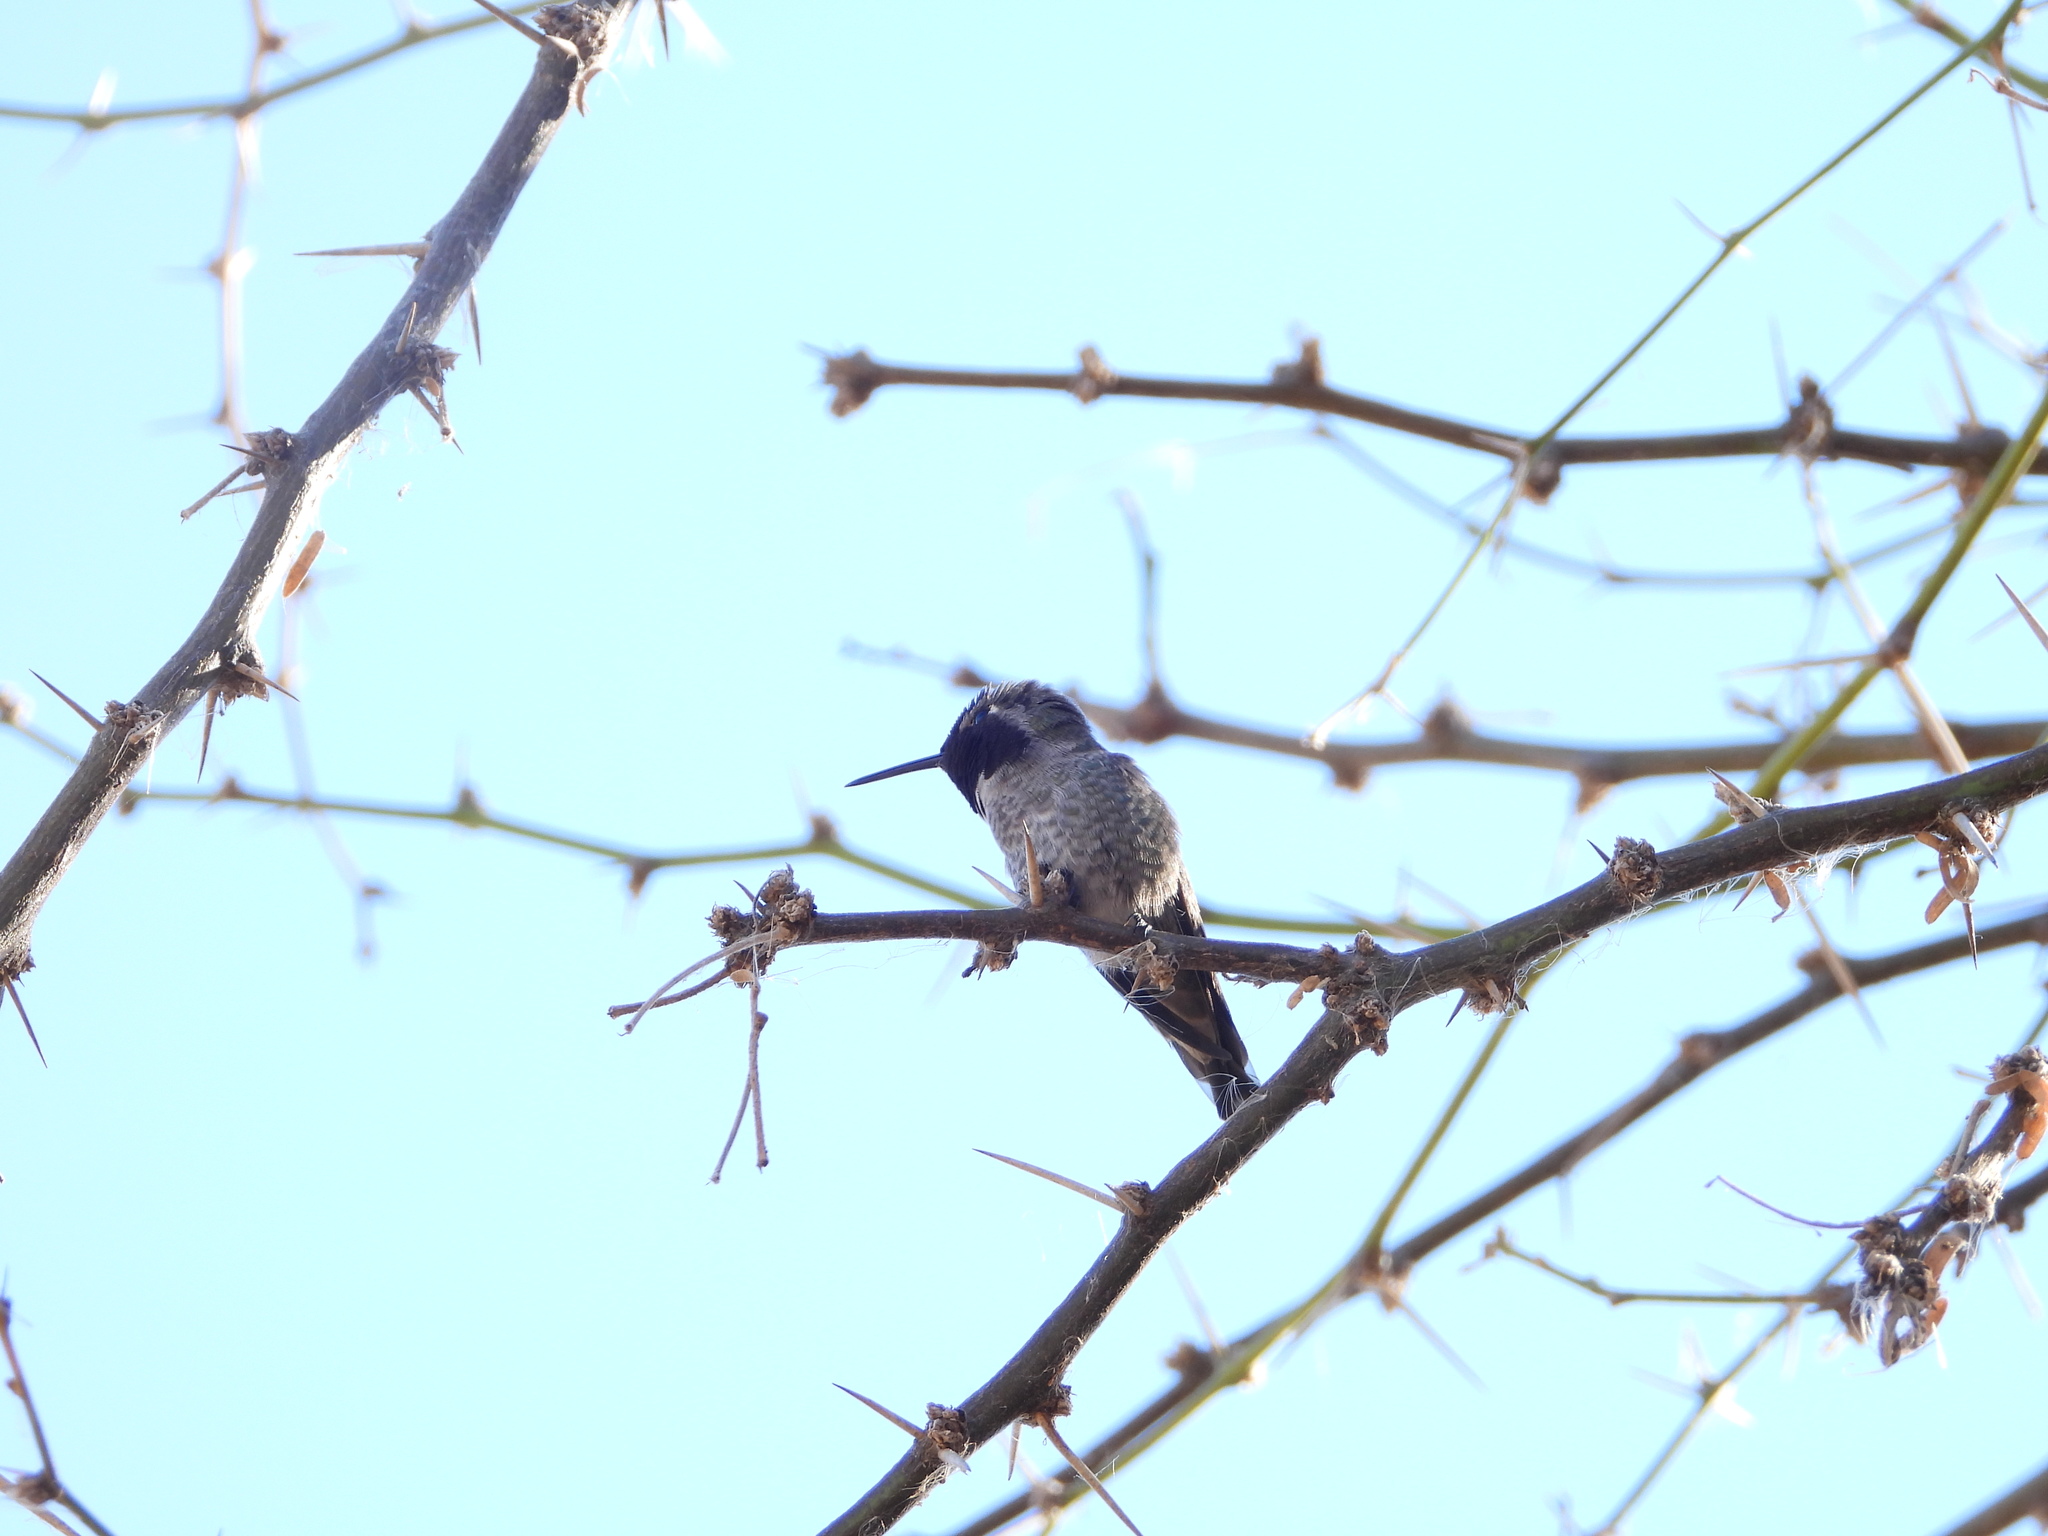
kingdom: Animalia
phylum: Chordata
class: Aves
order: Apodiformes
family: Trochilidae
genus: Calypte
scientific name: Calypte anna
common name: Anna's hummingbird
